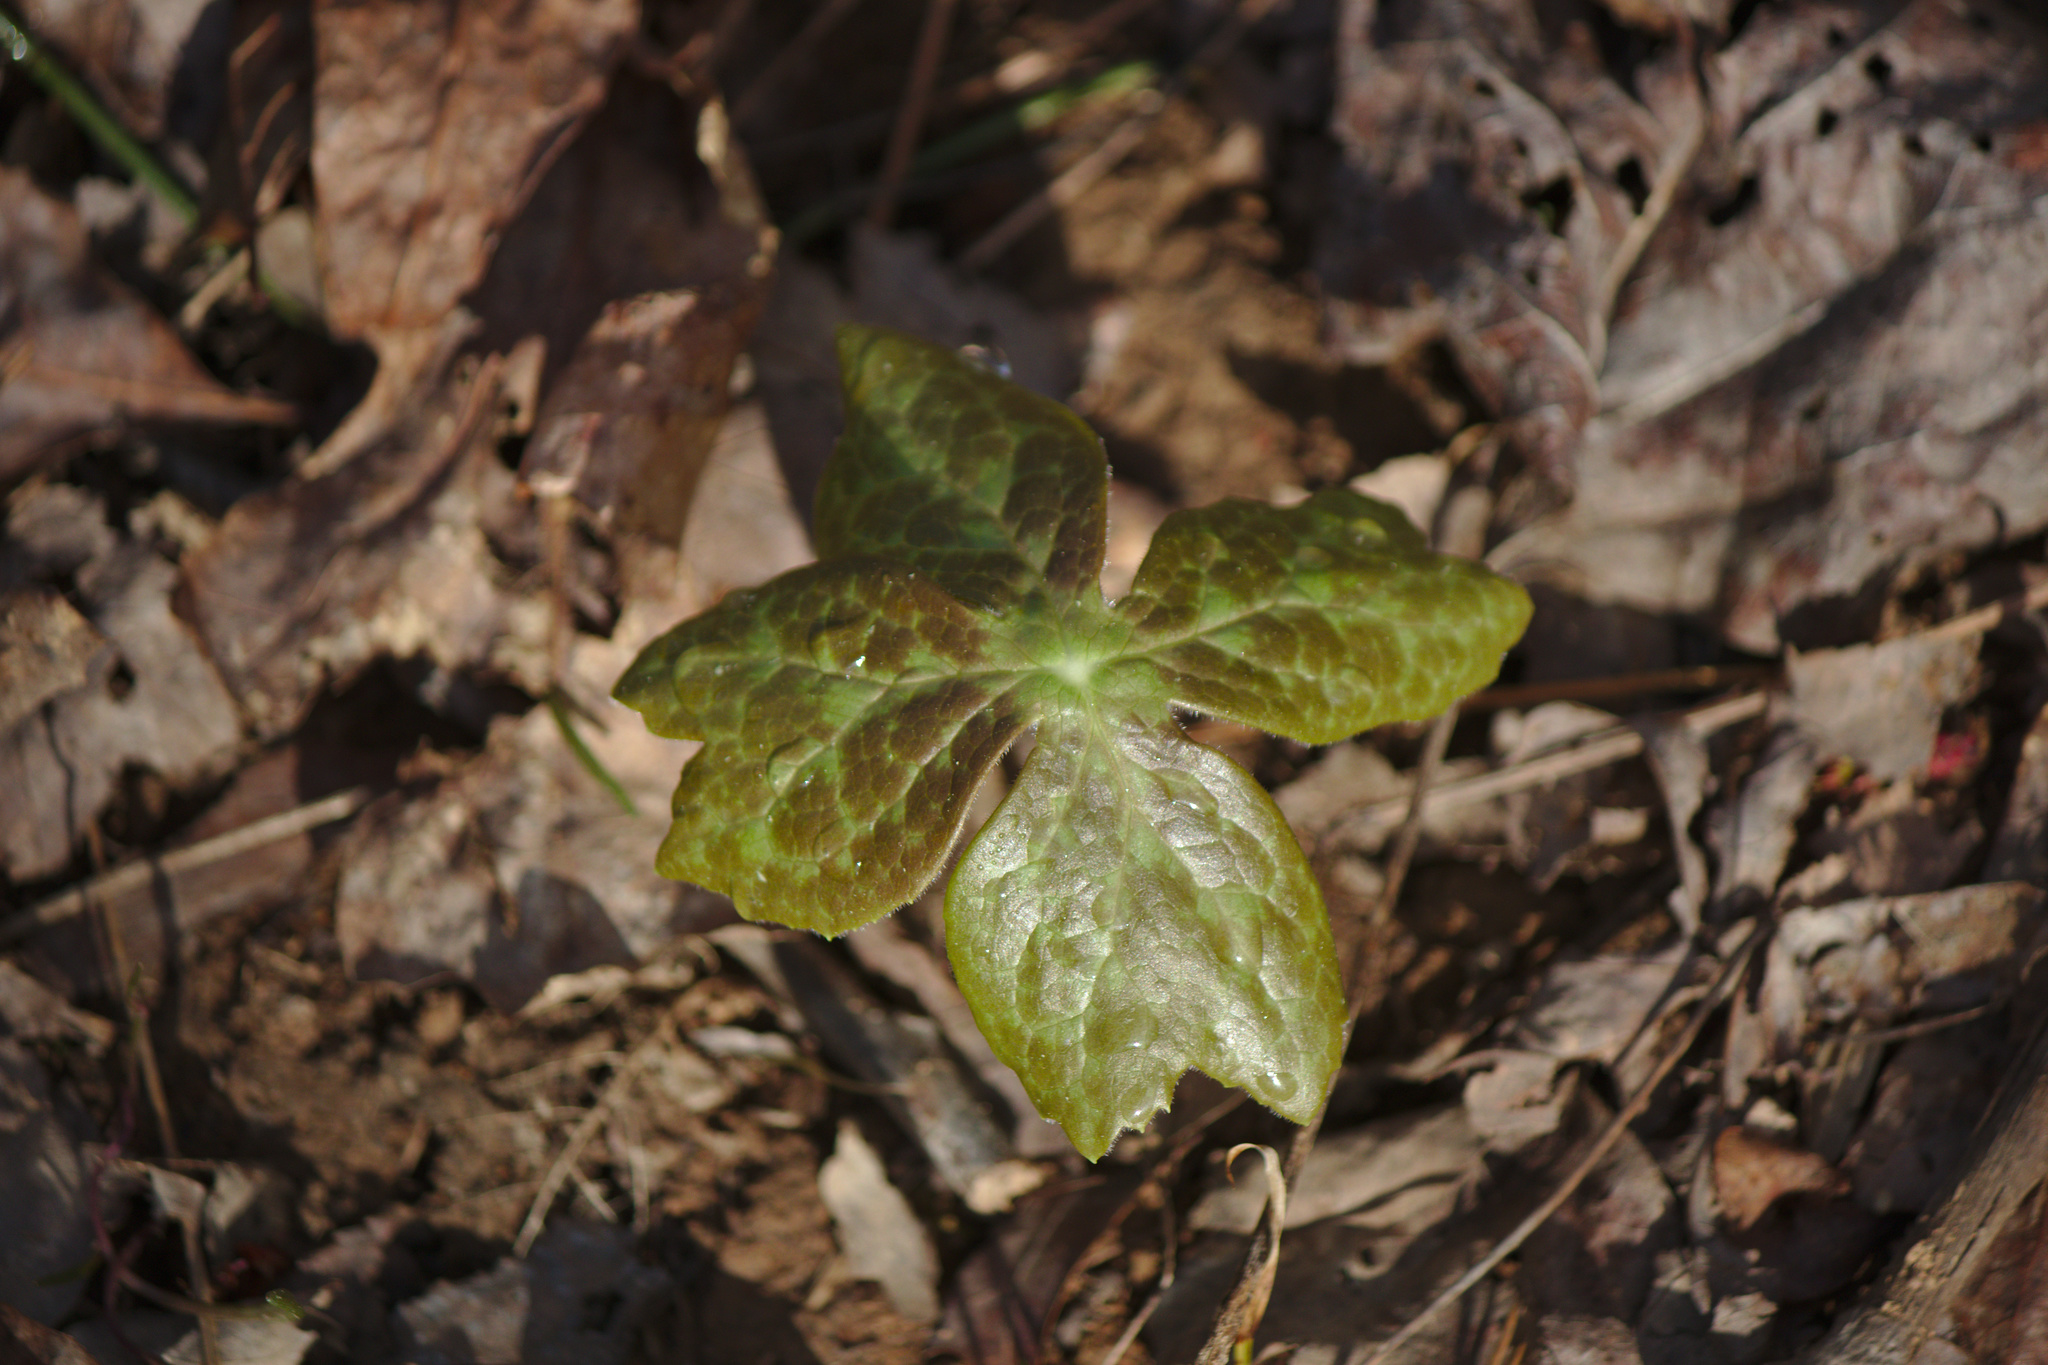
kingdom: Plantae
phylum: Tracheophyta
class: Magnoliopsida
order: Ranunculales
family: Berberidaceae
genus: Podophyllum
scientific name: Podophyllum peltatum
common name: Wild mandrake
